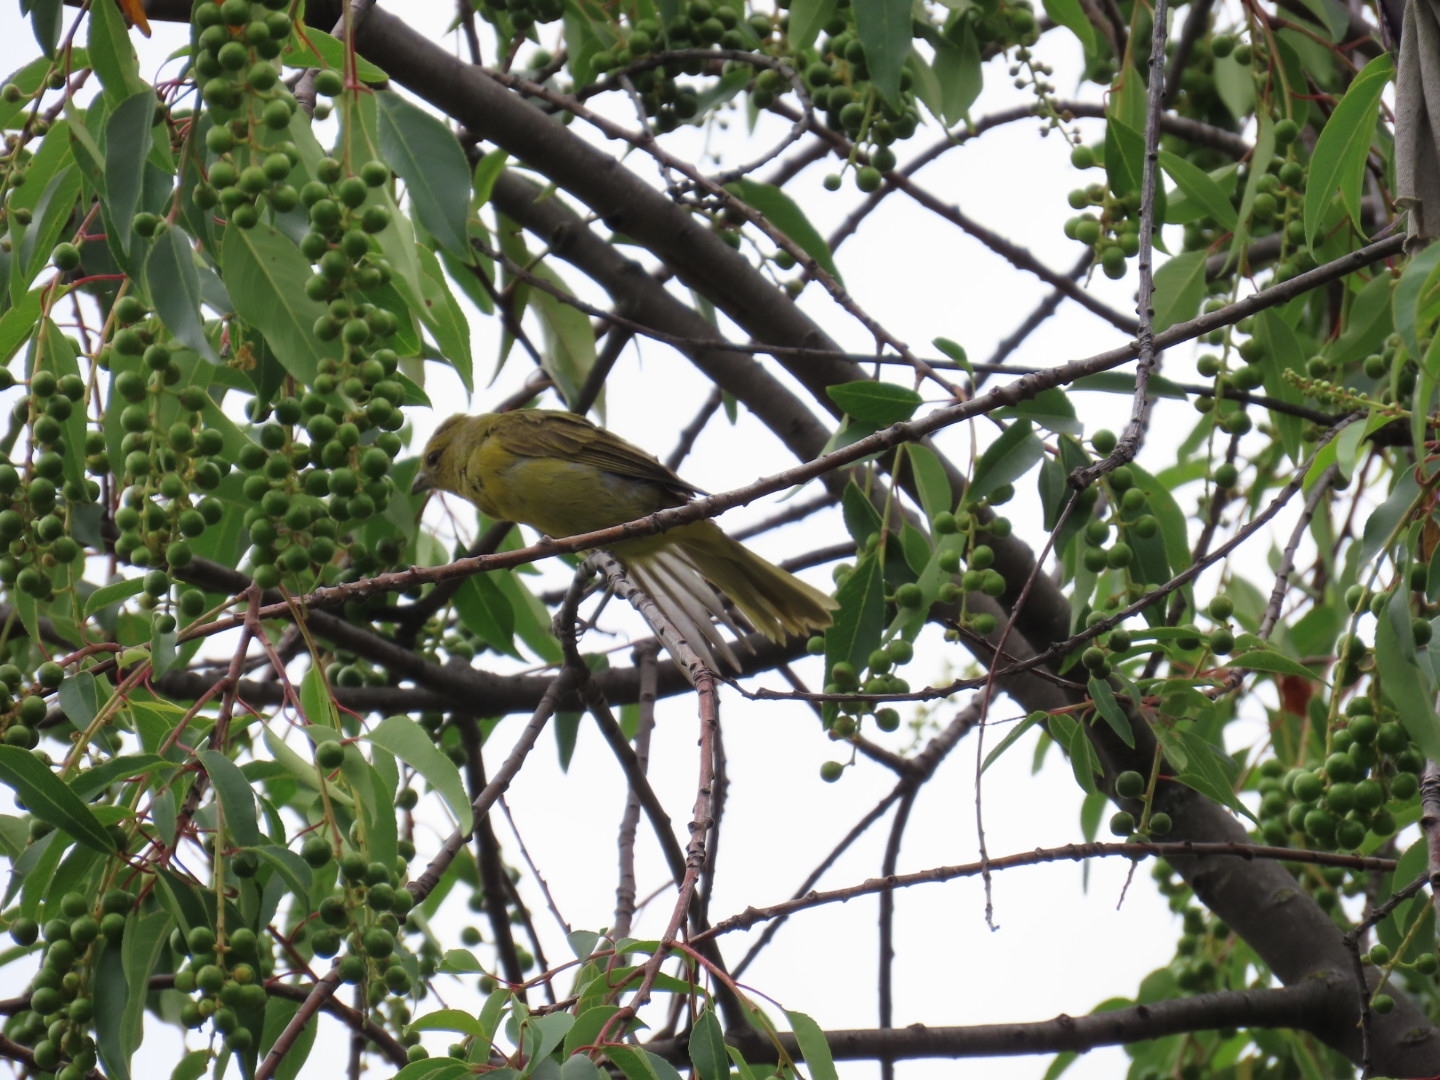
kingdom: Animalia
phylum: Chordata
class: Aves
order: Passeriformes
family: Cardinalidae
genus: Piranga
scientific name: Piranga flava
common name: Red tanager
